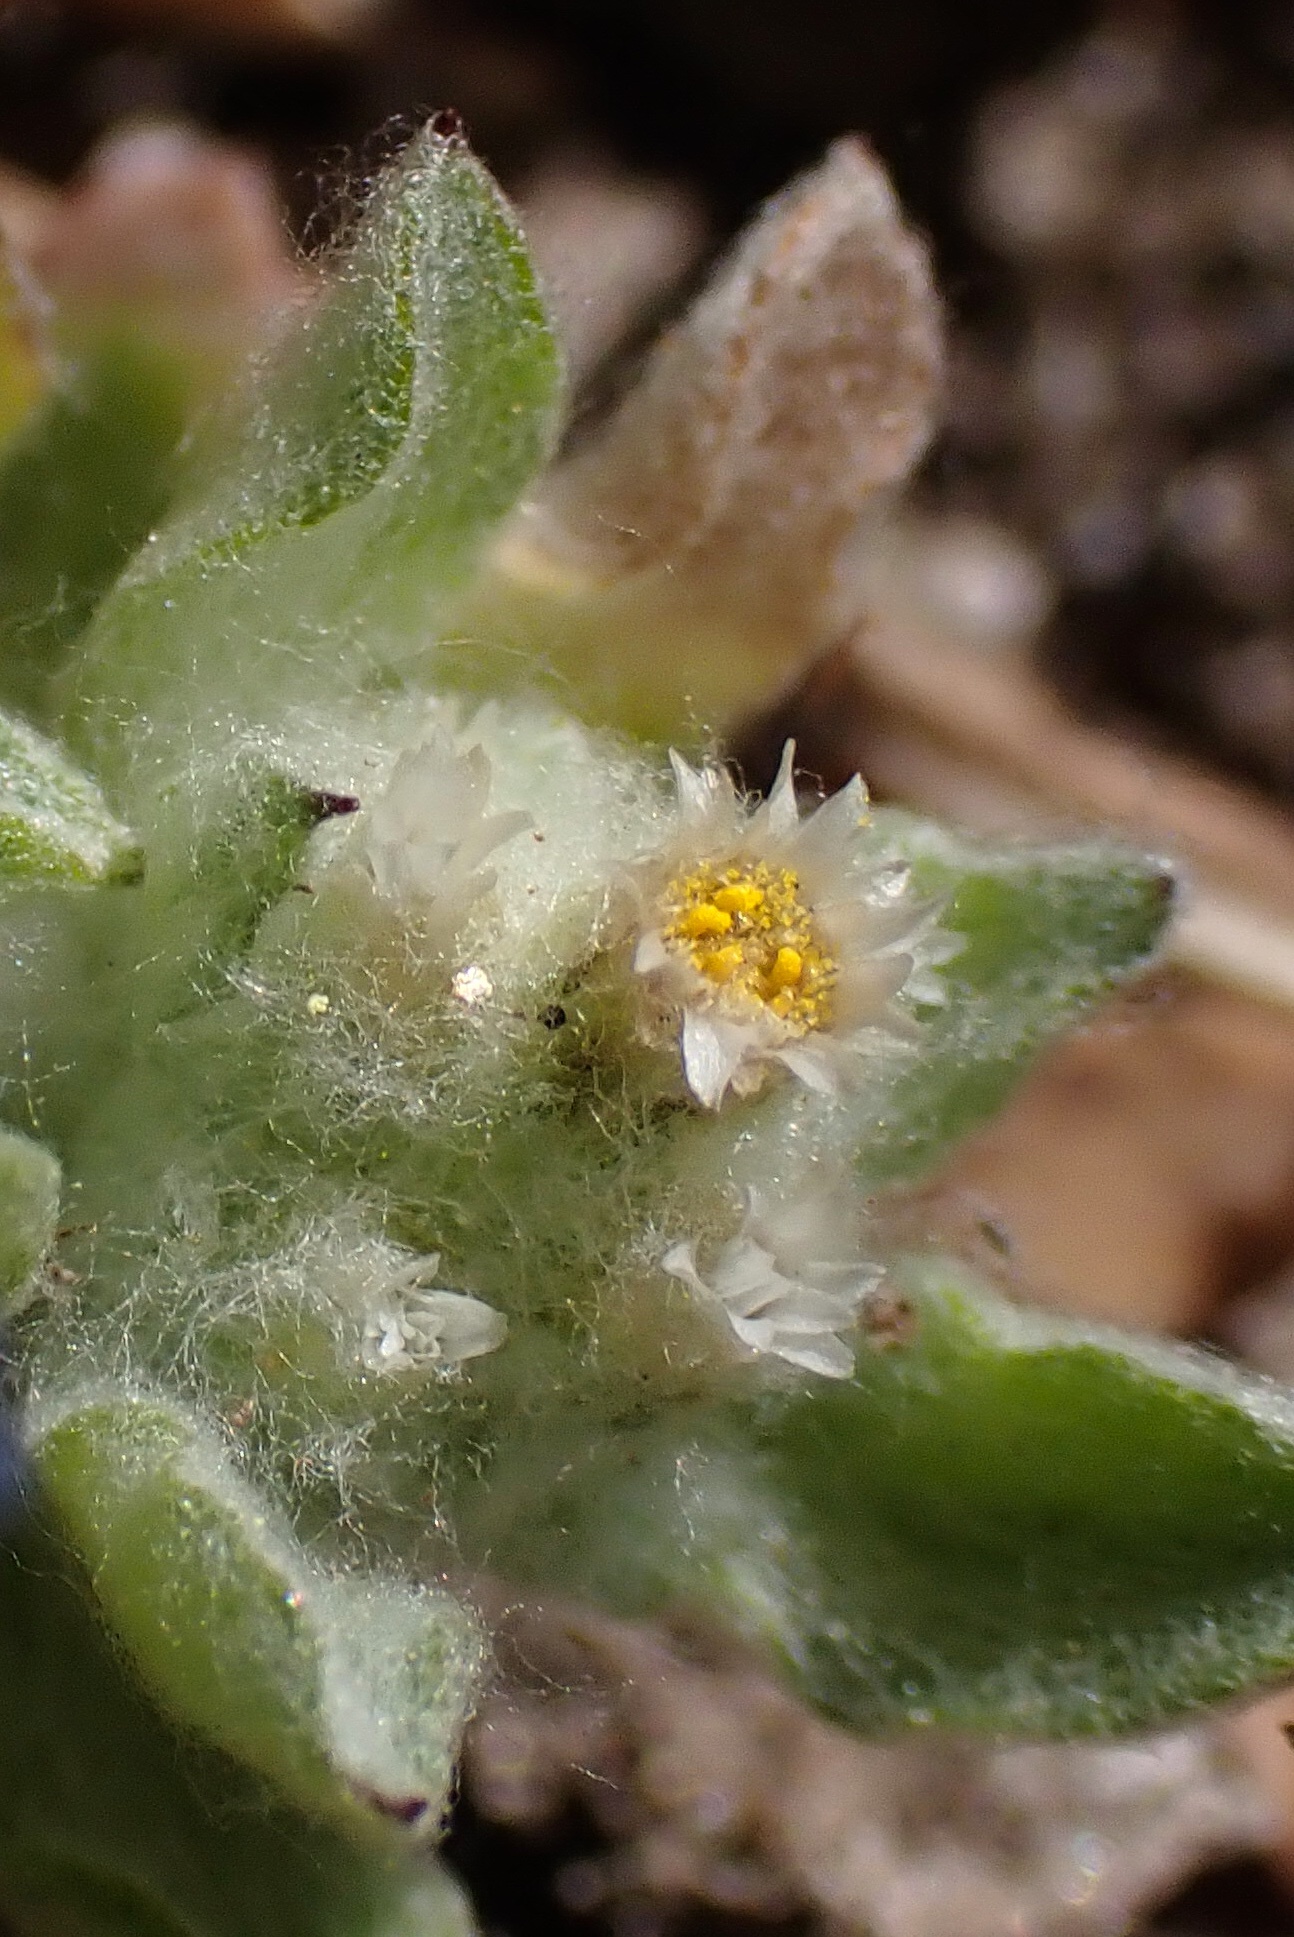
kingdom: Plantae
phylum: Tracheophyta
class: Magnoliopsida
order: Asterales
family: Asteraceae
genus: Gnaphalium
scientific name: Gnaphalium palustre
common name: Western marsh cudweed
